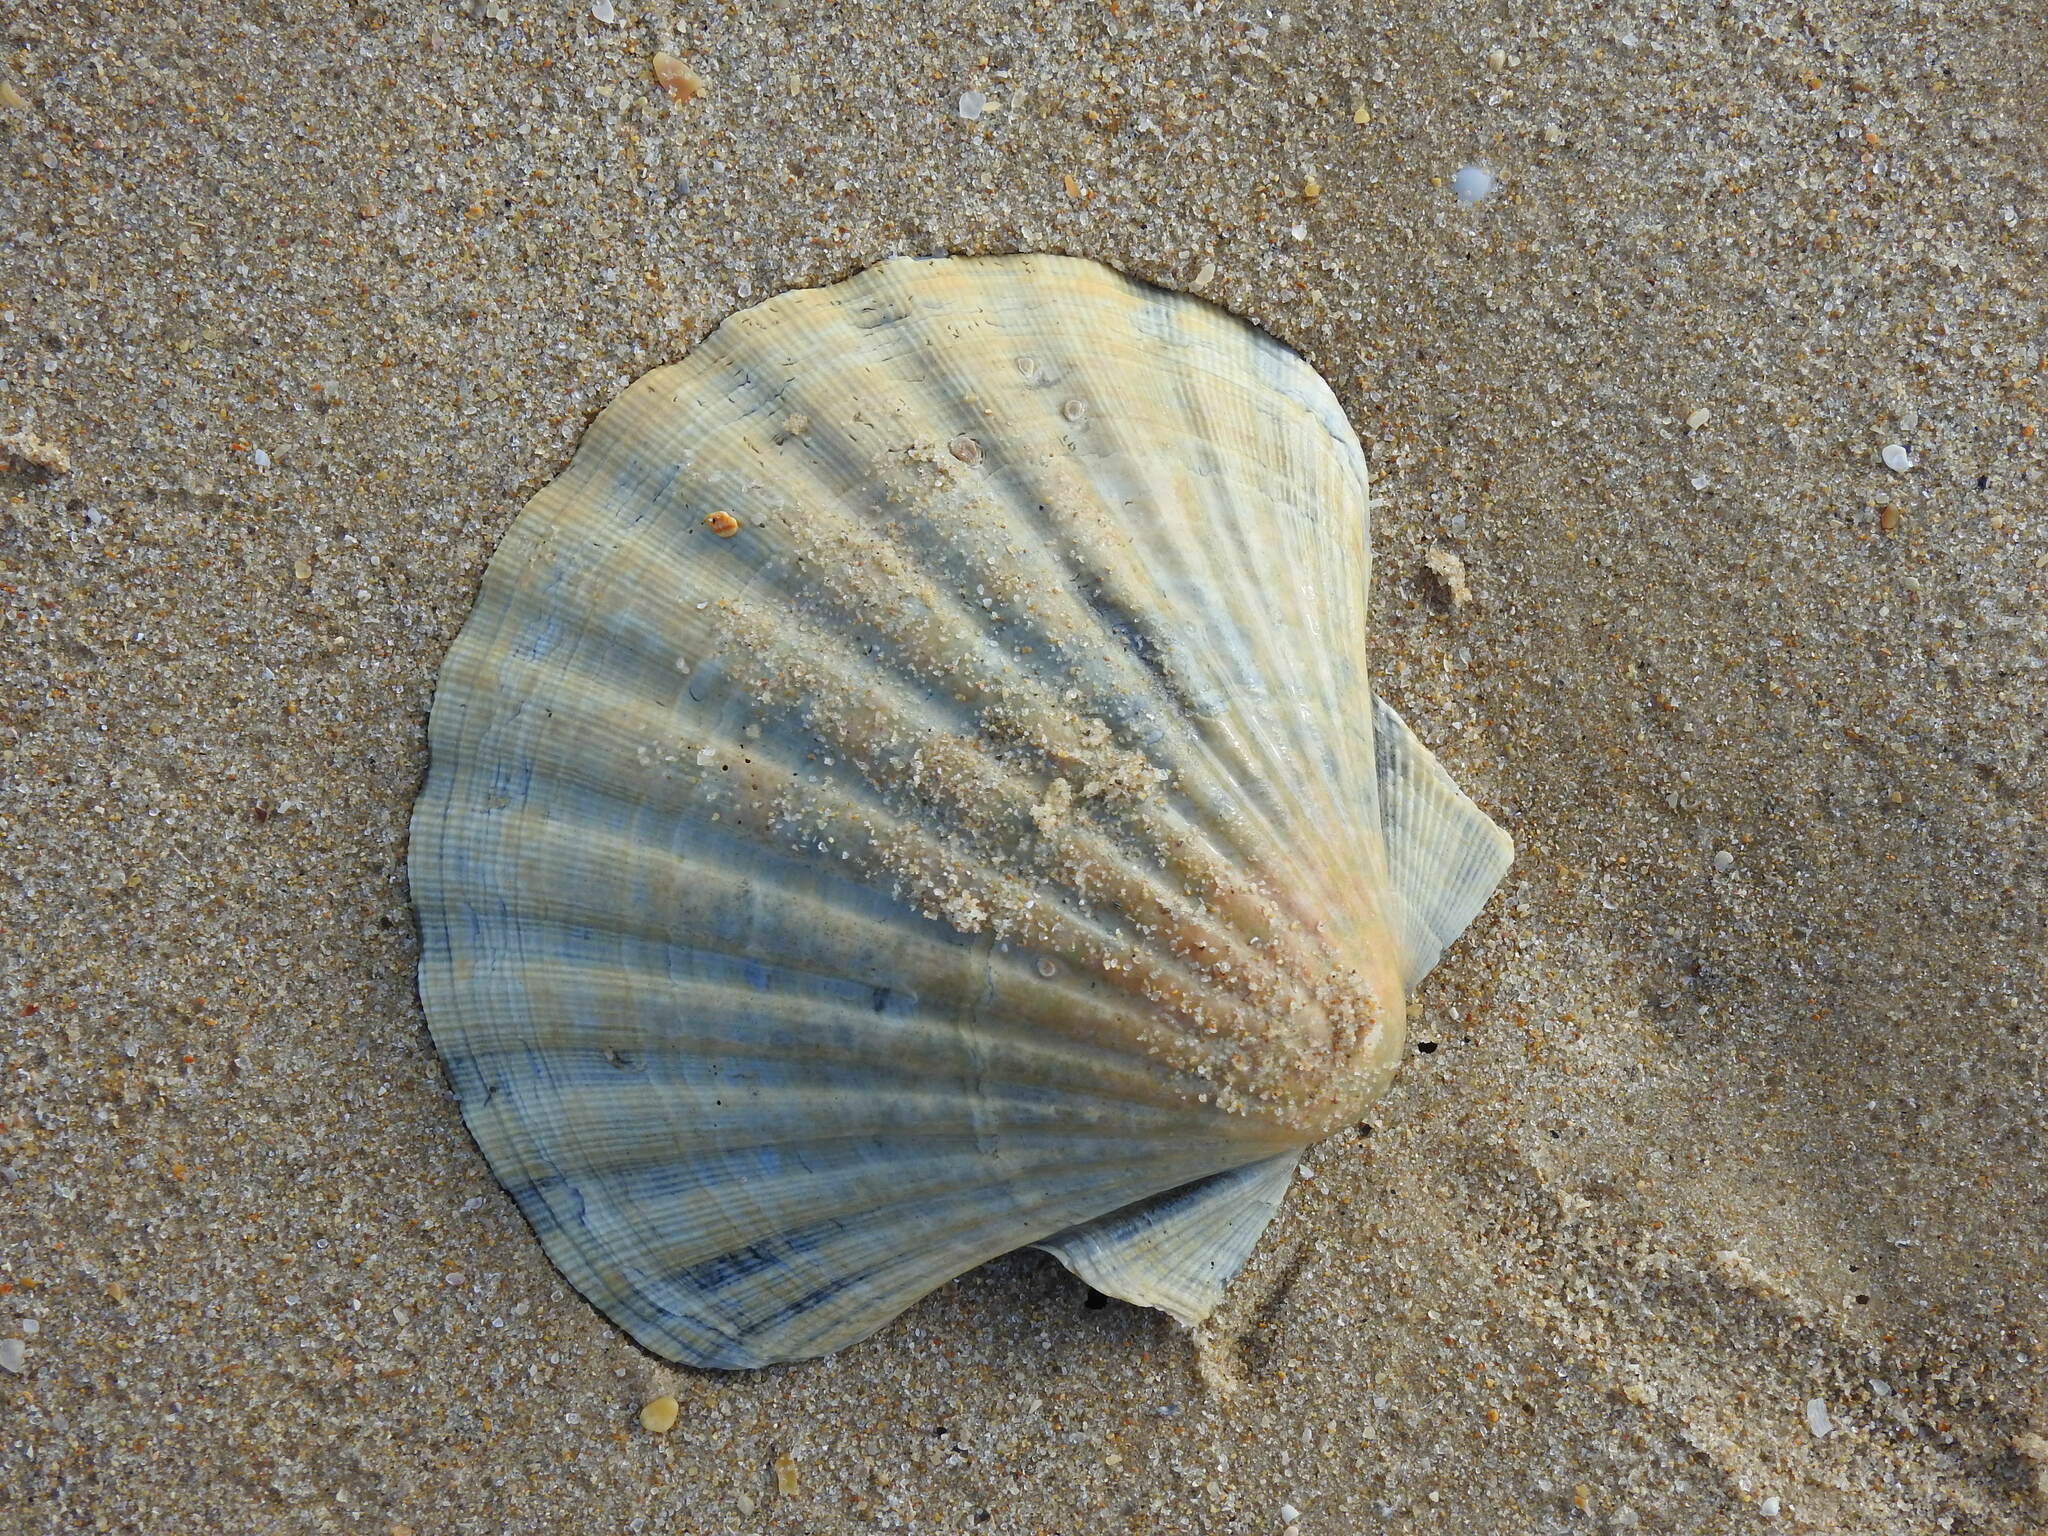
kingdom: Animalia
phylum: Mollusca
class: Bivalvia
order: Pectinida
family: Pectinidae
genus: Pecten
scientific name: Pecten maximus
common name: Great scallop
